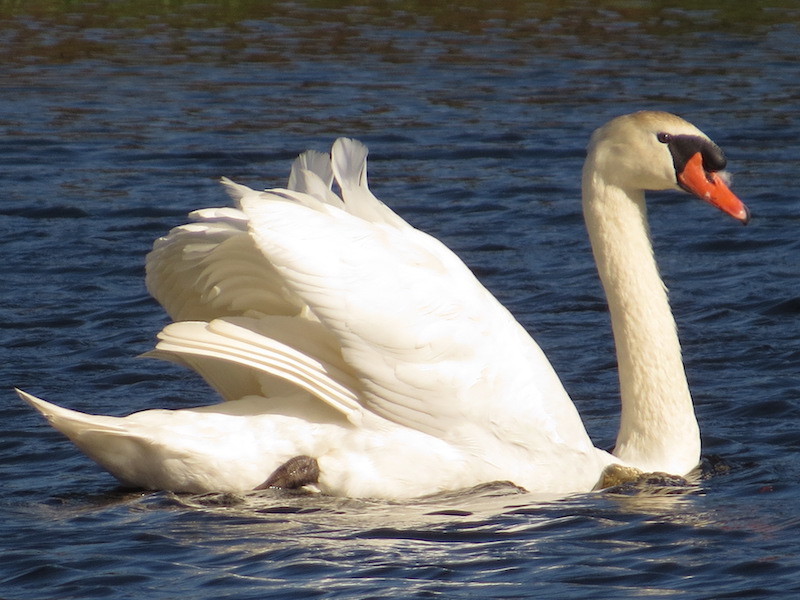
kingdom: Animalia
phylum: Chordata
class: Aves
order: Anseriformes
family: Anatidae
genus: Cygnus
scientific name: Cygnus olor
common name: Mute swan
